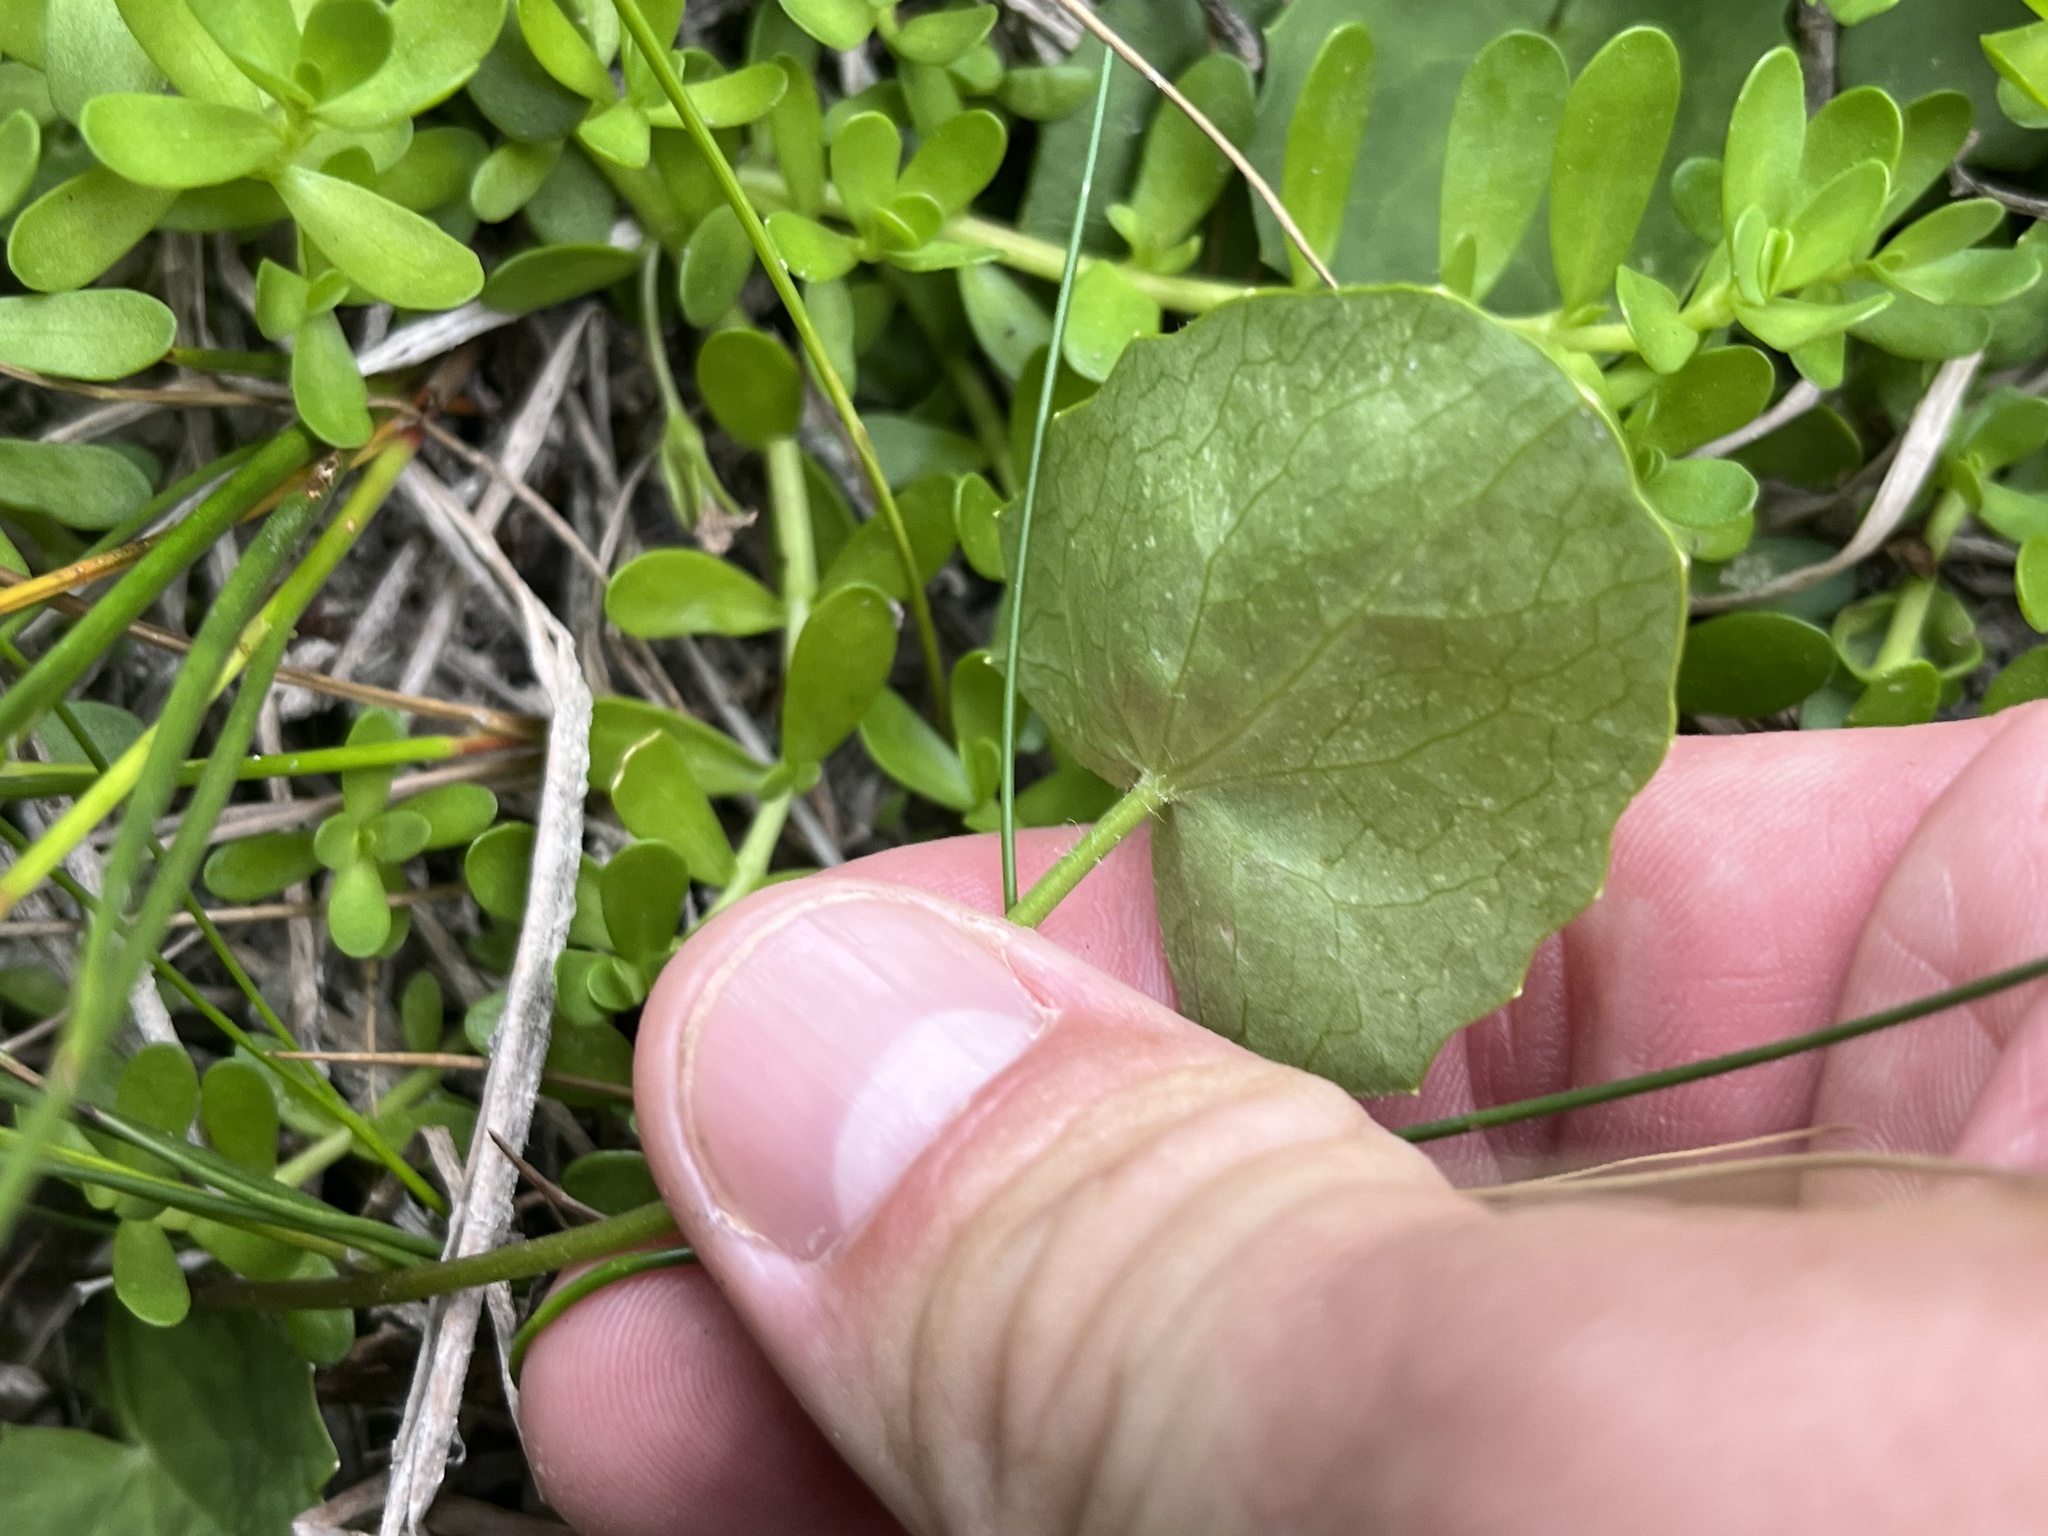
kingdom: Plantae
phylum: Tracheophyta
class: Magnoliopsida
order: Apiales
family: Apiaceae
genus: Centella
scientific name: Centella erecta
